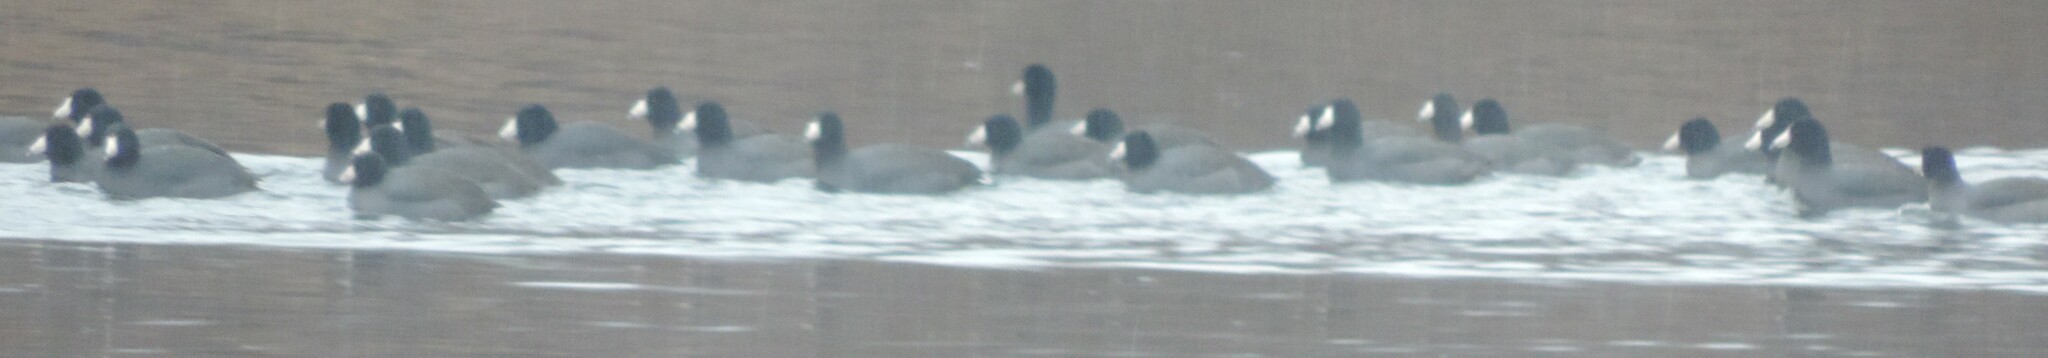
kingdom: Animalia
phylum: Chordata
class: Aves
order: Gruiformes
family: Rallidae
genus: Fulica
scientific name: Fulica americana
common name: American coot
